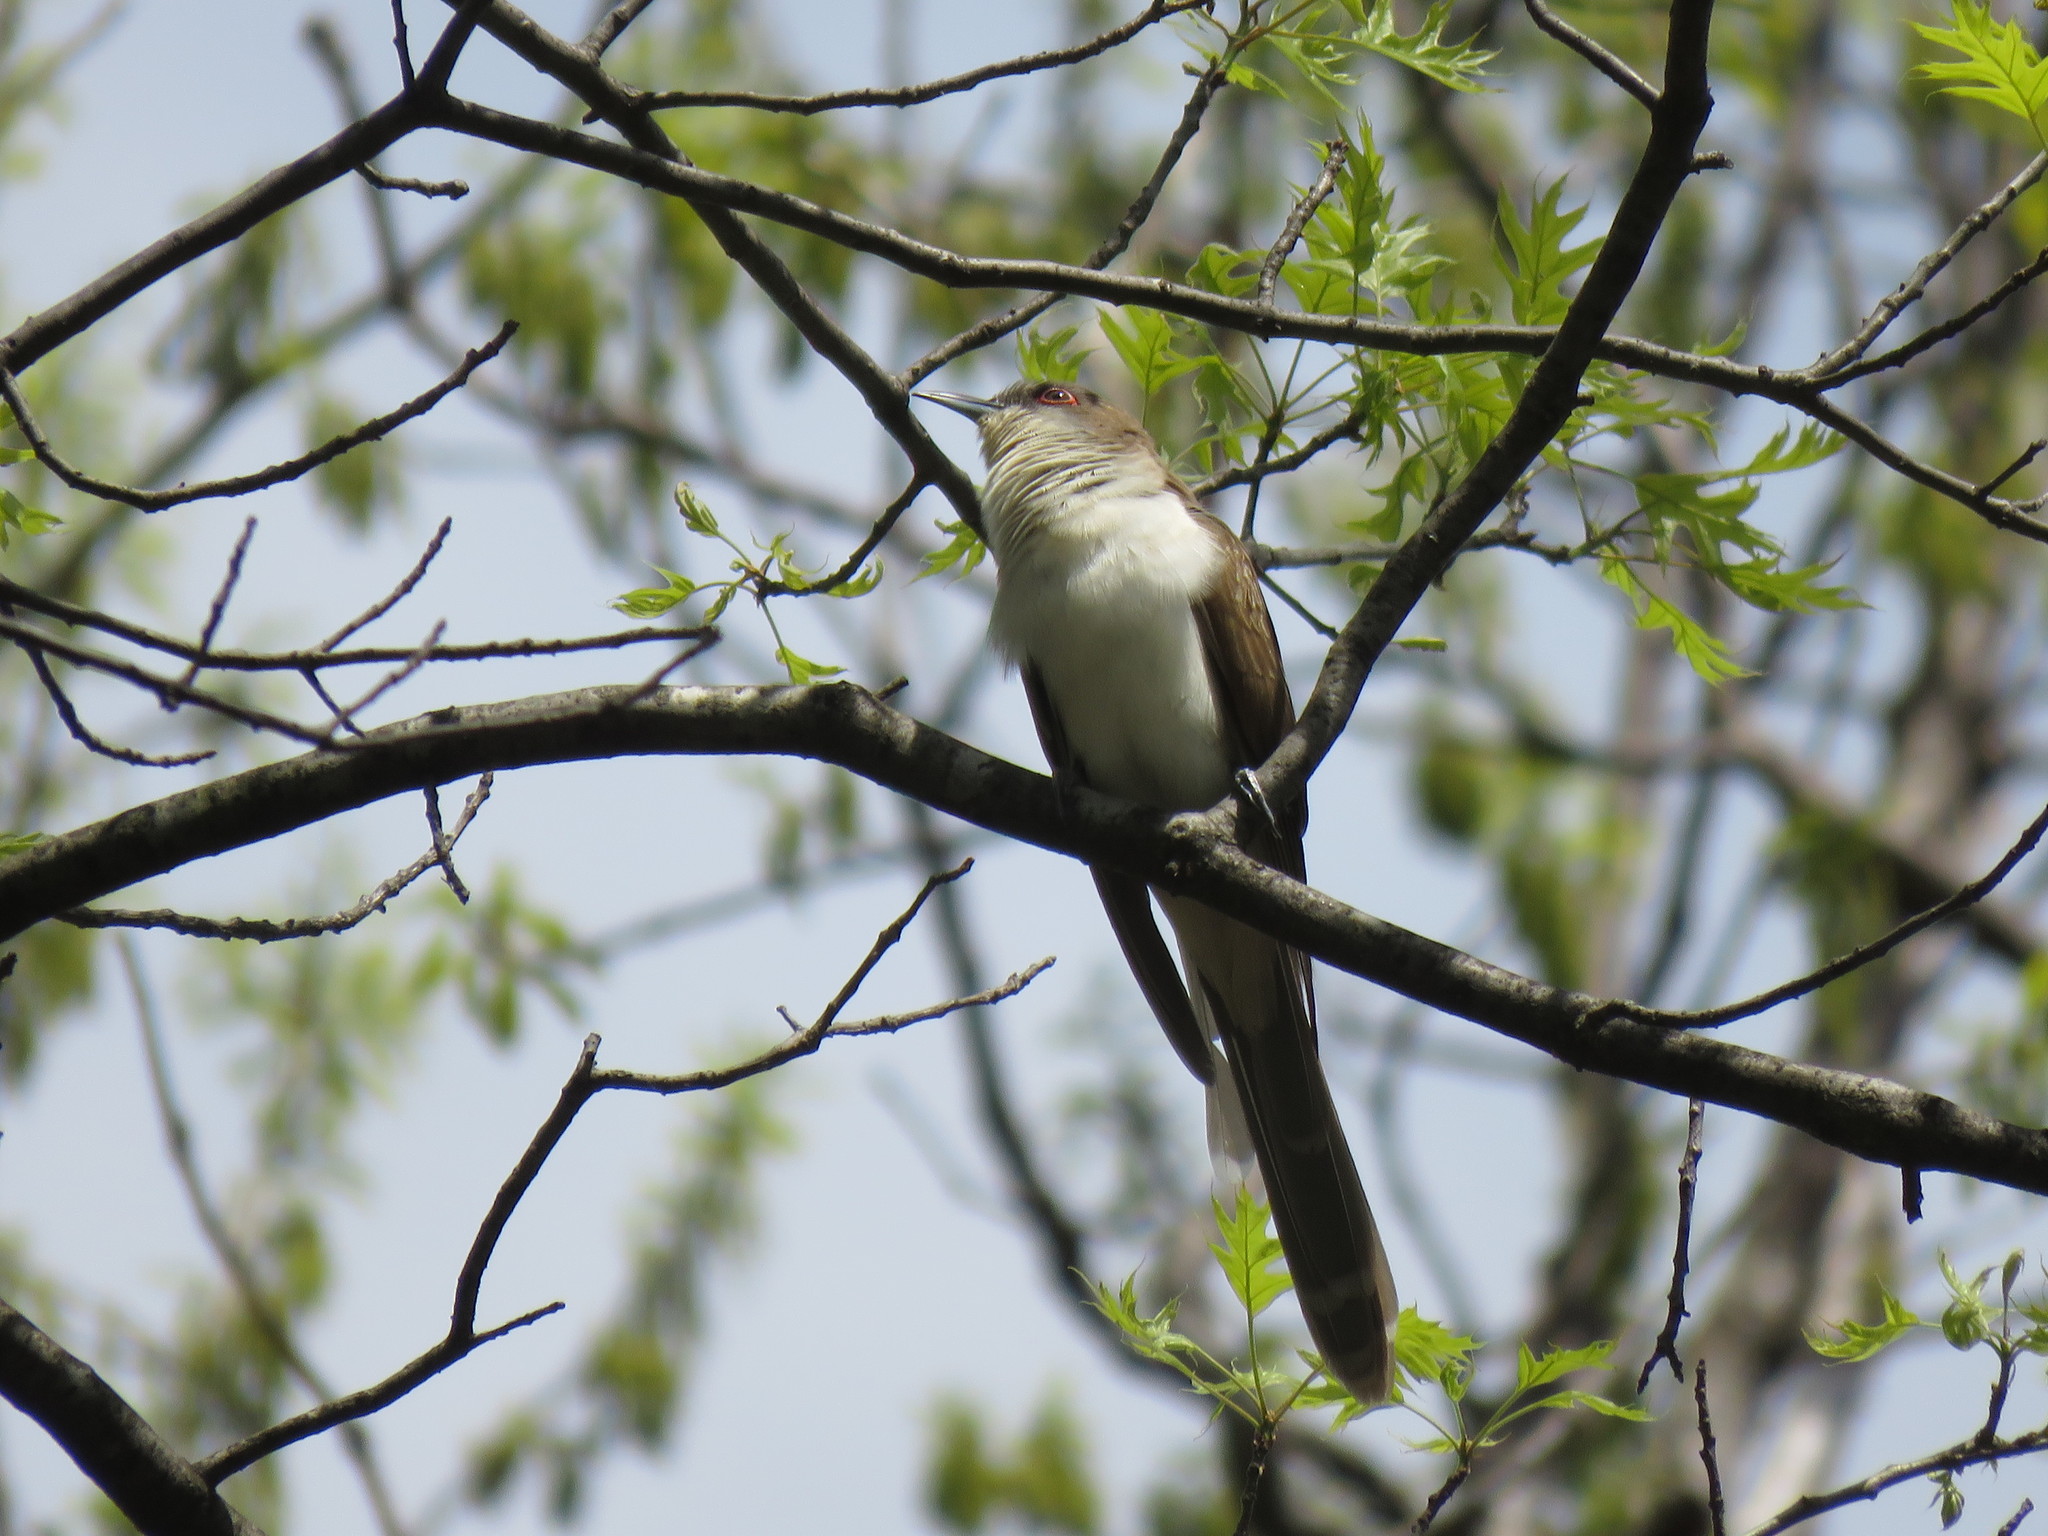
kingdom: Animalia
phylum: Chordata
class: Aves
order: Cuculiformes
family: Cuculidae
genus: Coccyzus
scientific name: Coccyzus erythropthalmus
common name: Black-billed cuckoo
